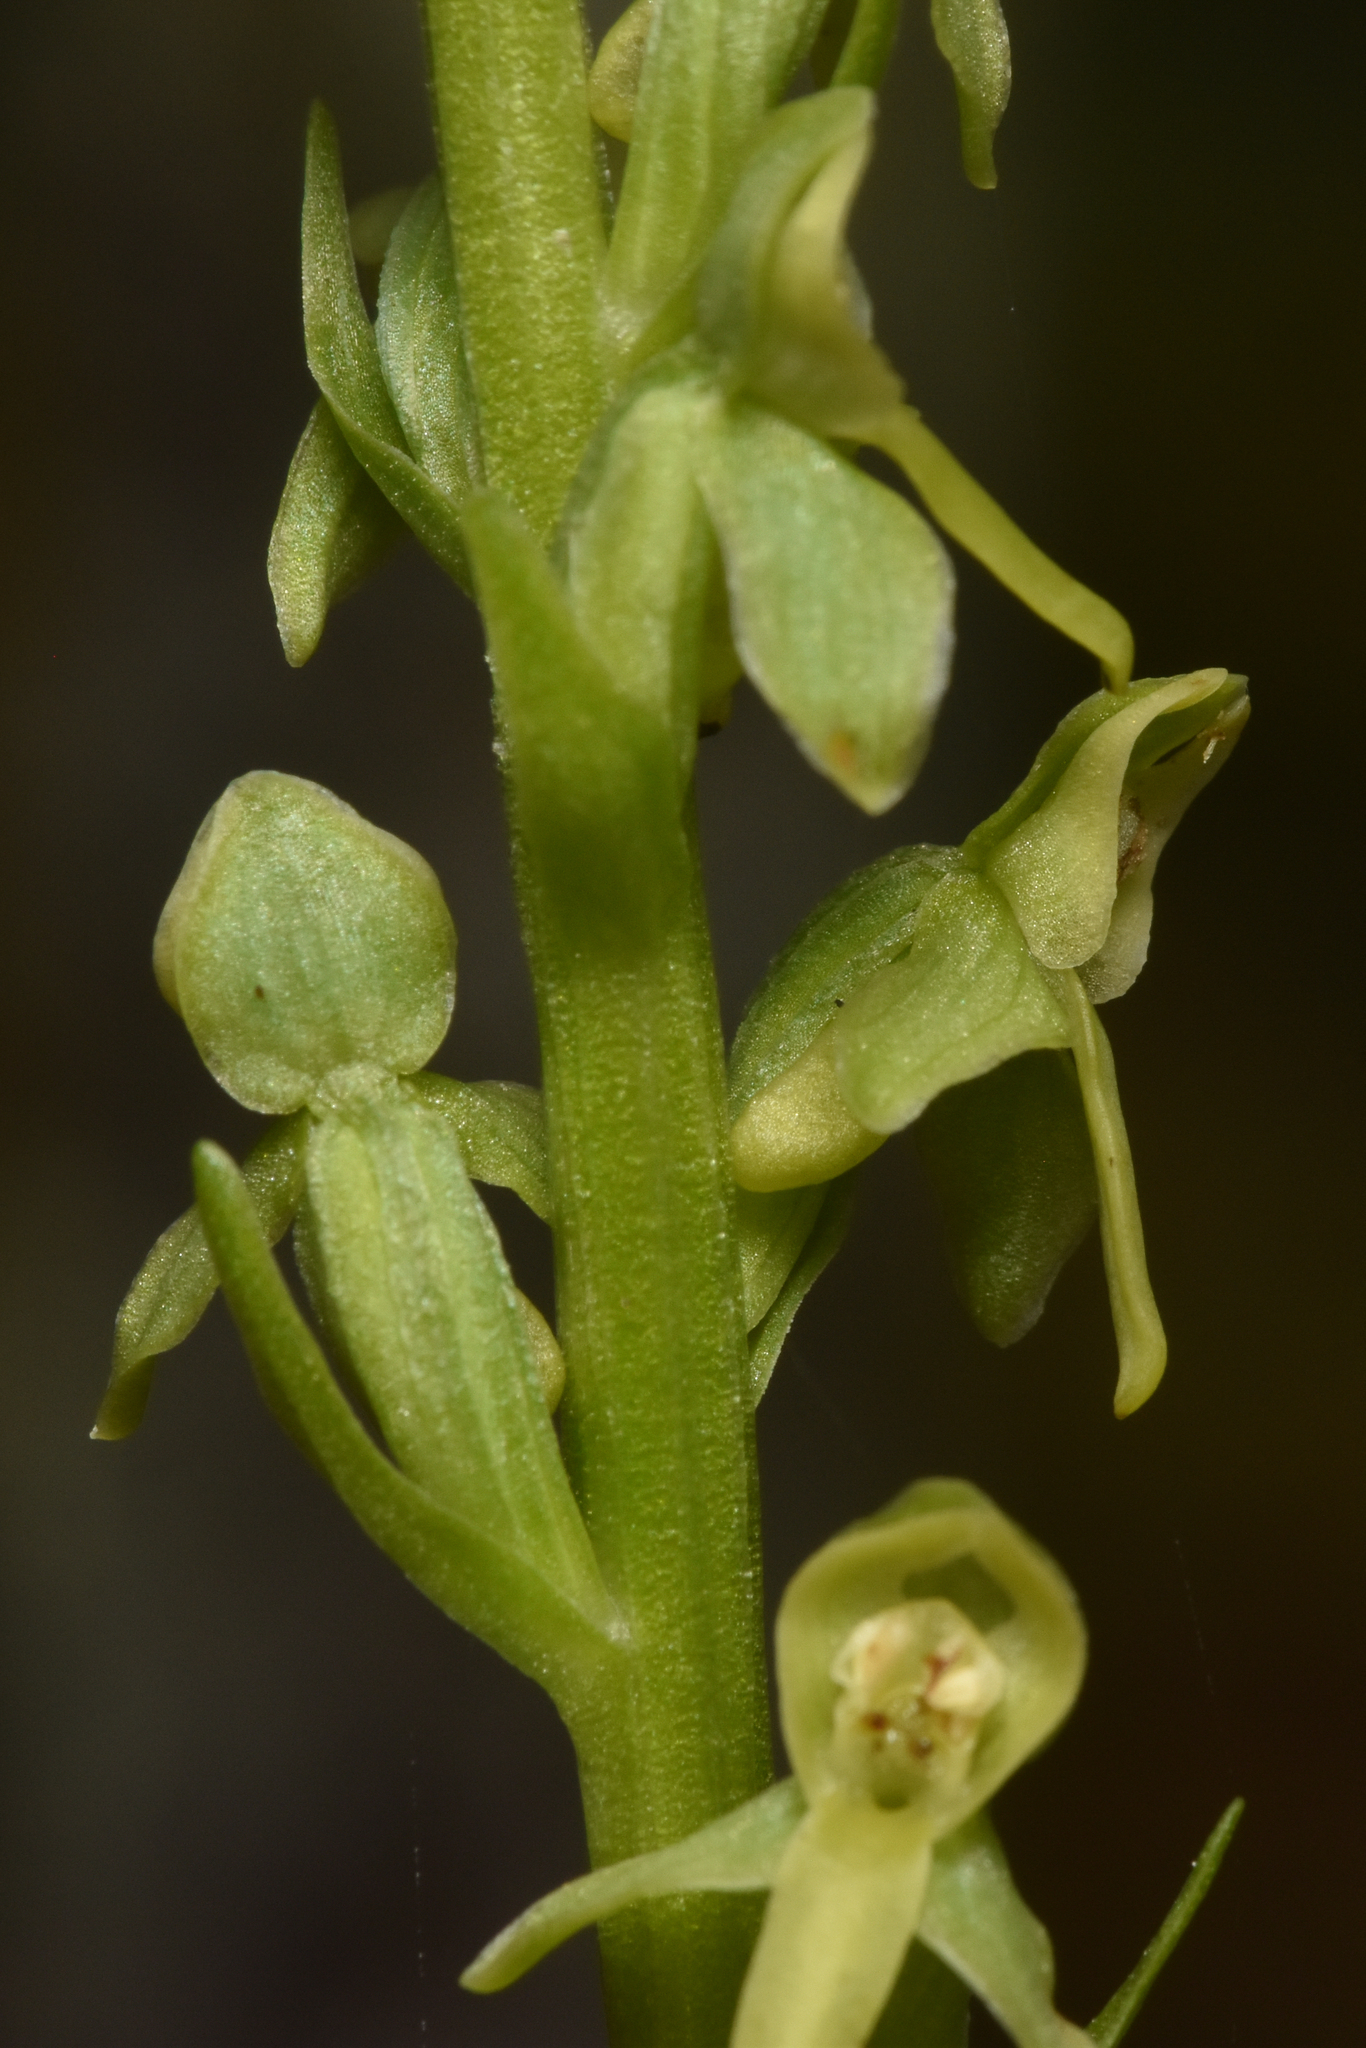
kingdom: Plantae
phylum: Tracheophyta
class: Liliopsida
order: Asparagales
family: Orchidaceae
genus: Platanthera
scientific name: Platanthera stricta
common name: Slender bog orchid
